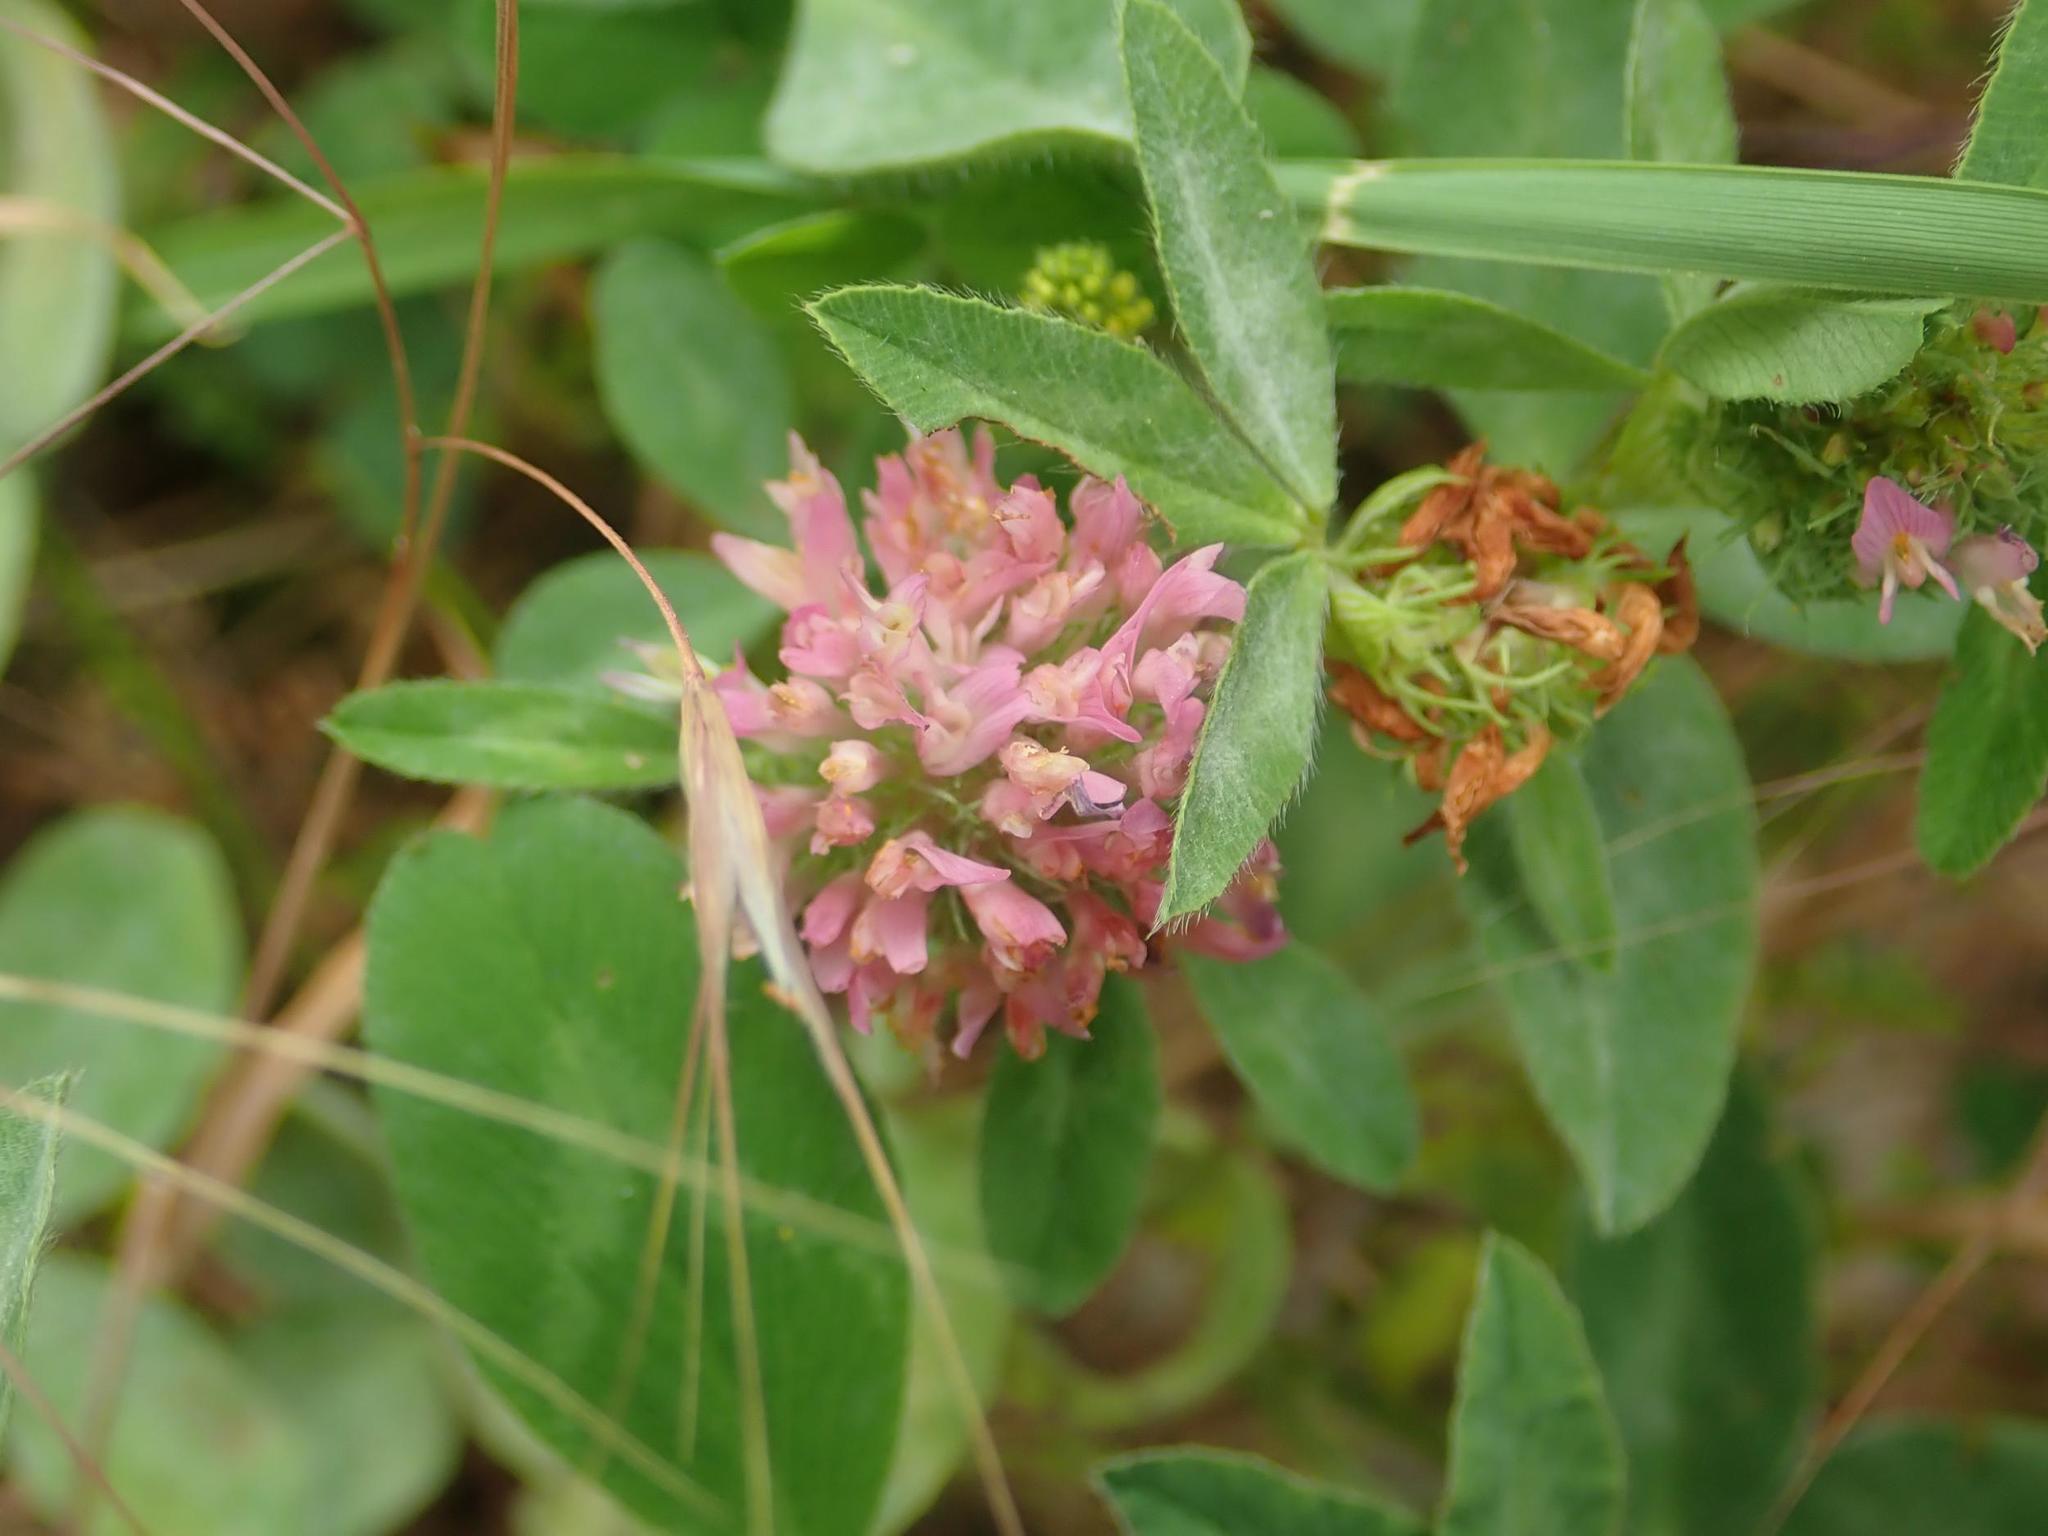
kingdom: Plantae
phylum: Tracheophyta
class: Magnoliopsida
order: Fabales
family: Fabaceae
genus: Trifolium
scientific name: Trifolium pratense
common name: Red clover
